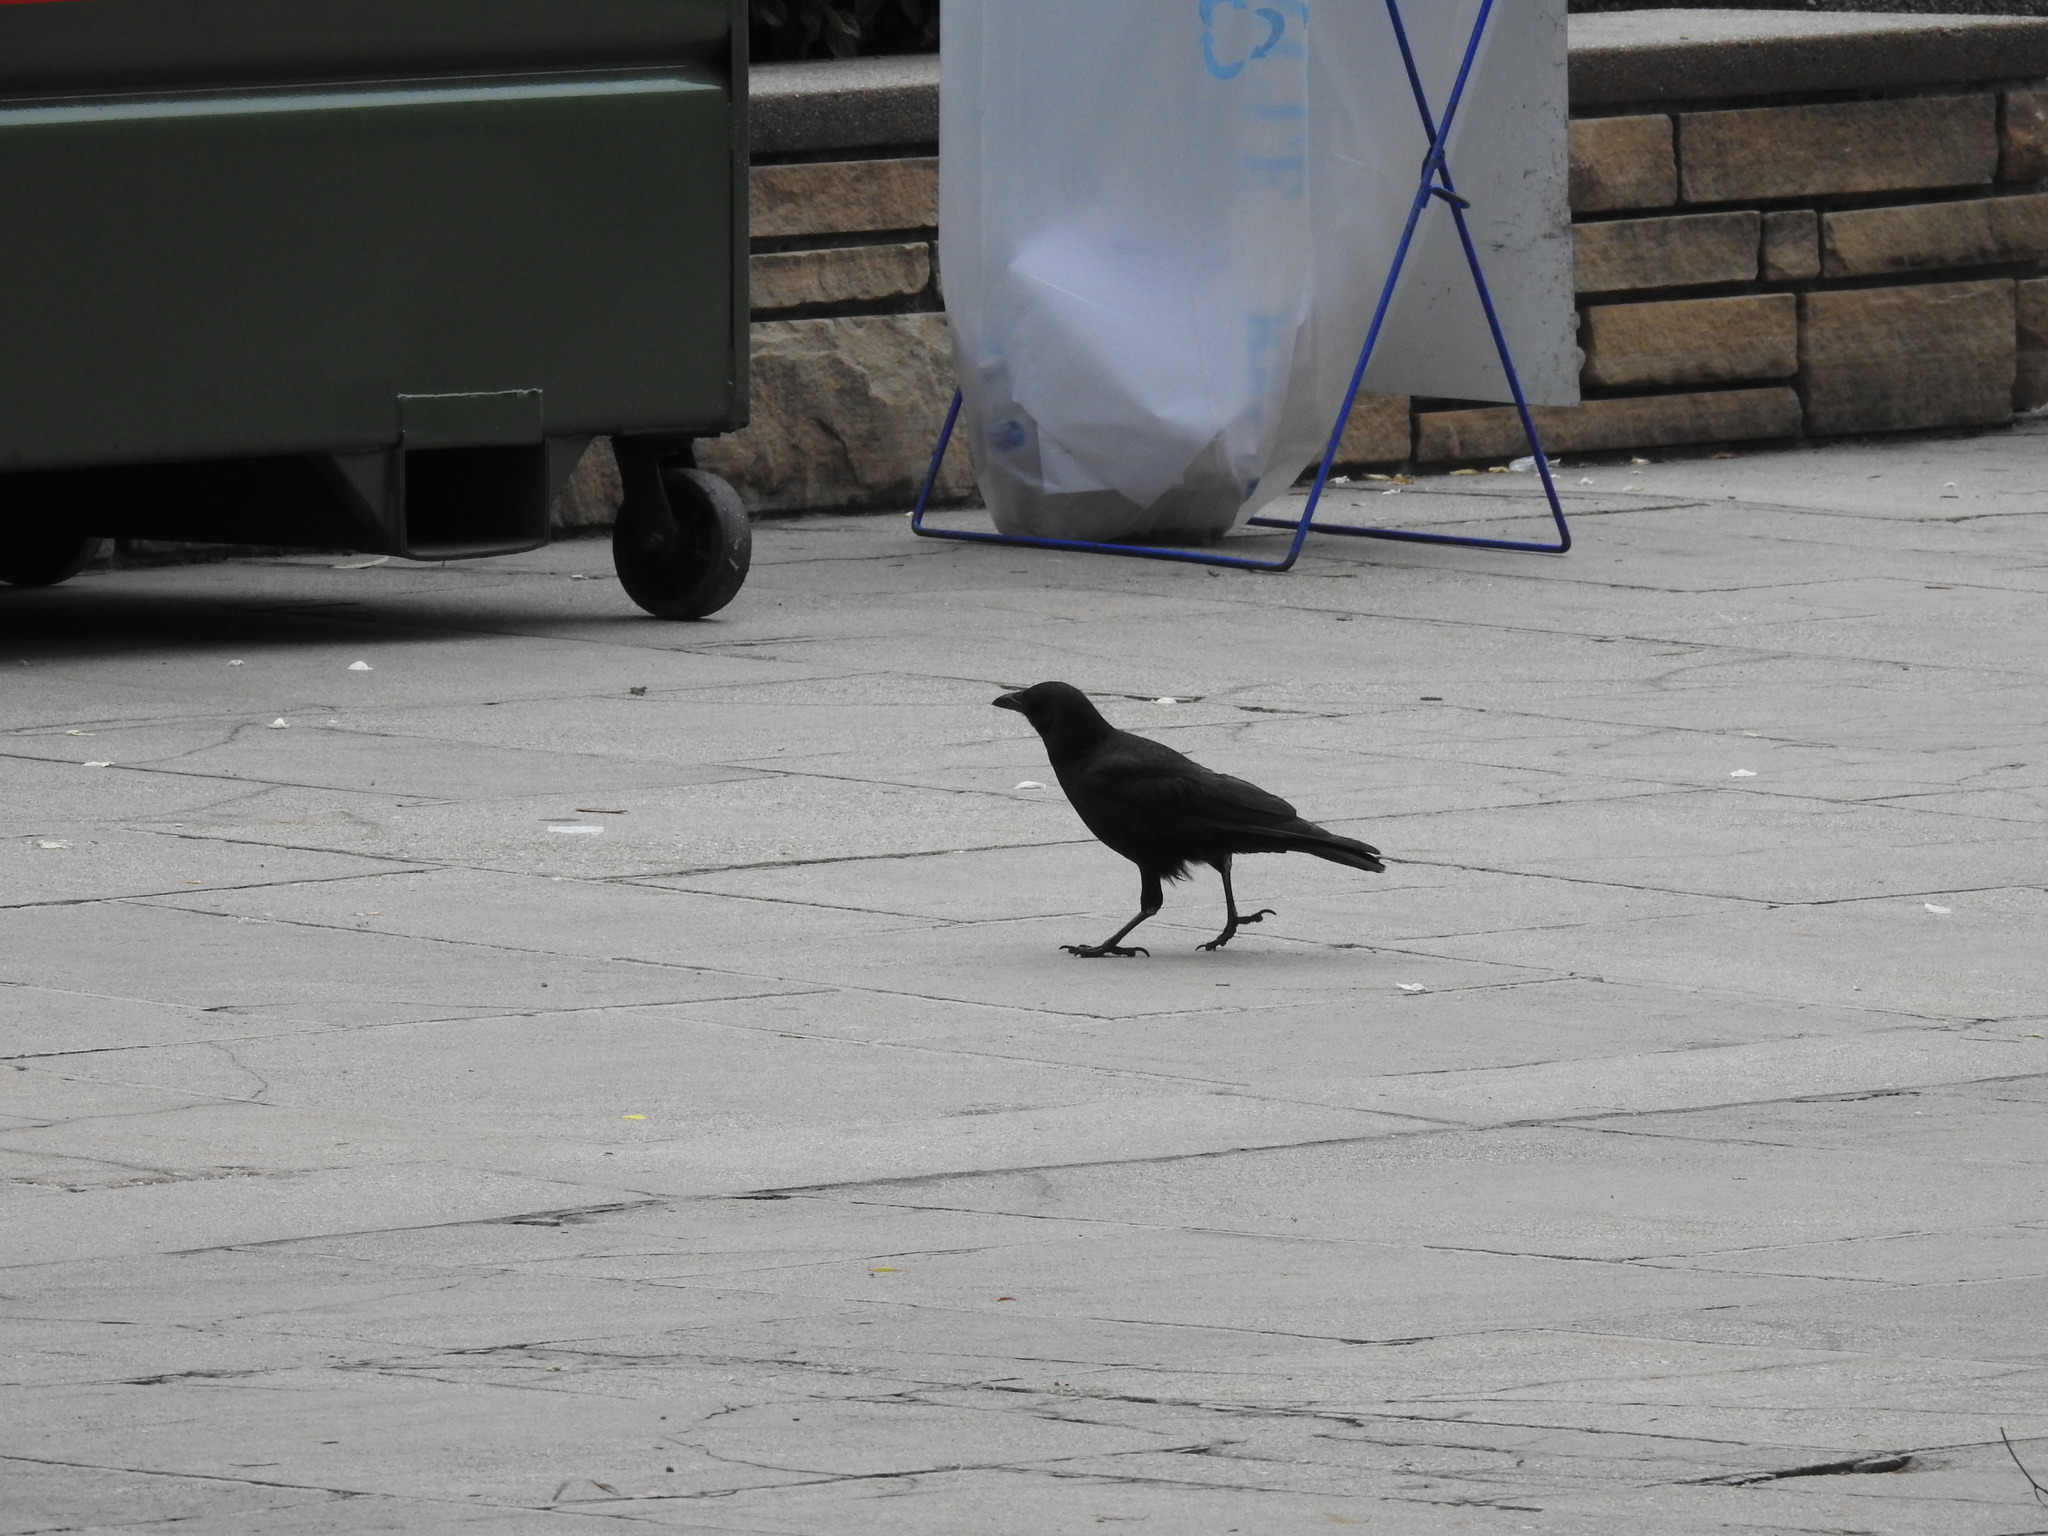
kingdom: Animalia
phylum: Chordata
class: Aves
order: Passeriformes
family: Corvidae
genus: Corvus
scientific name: Corvus brachyrhynchos
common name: American crow
